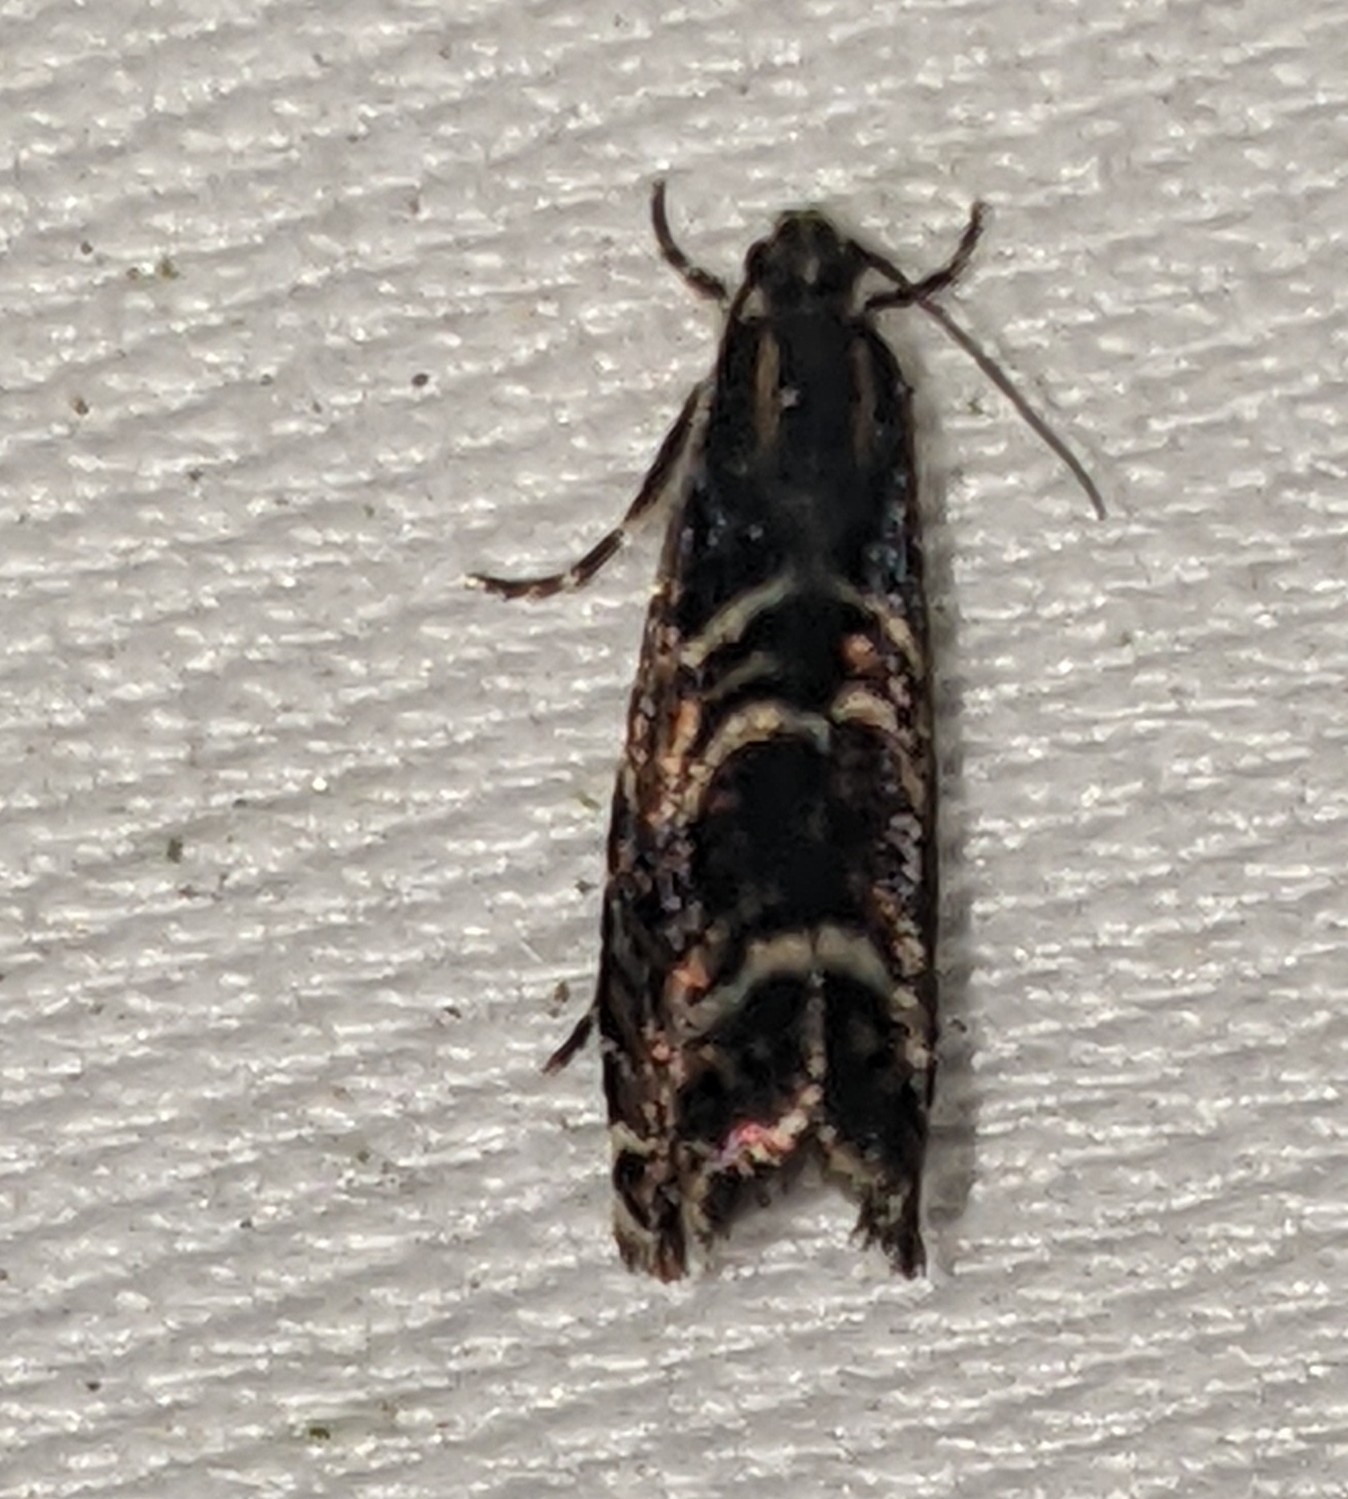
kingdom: Animalia
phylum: Arthropoda
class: Insecta
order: Lepidoptera
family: Tortricidae
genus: Thaumatographa
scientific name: Thaumatographa youngiella
